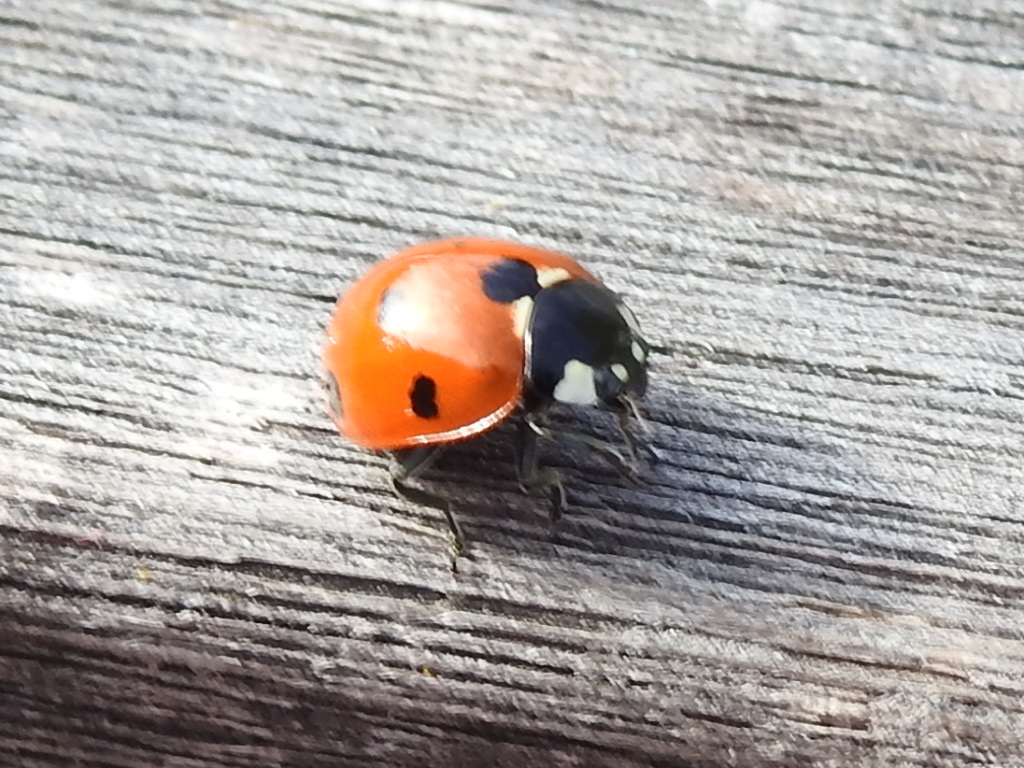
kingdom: Animalia
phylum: Arthropoda
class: Insecta
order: Coleoptera
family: Coccinellidae
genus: Coccinella
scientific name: Coccinella septempunctata
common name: Sevenspotted lady beetle
